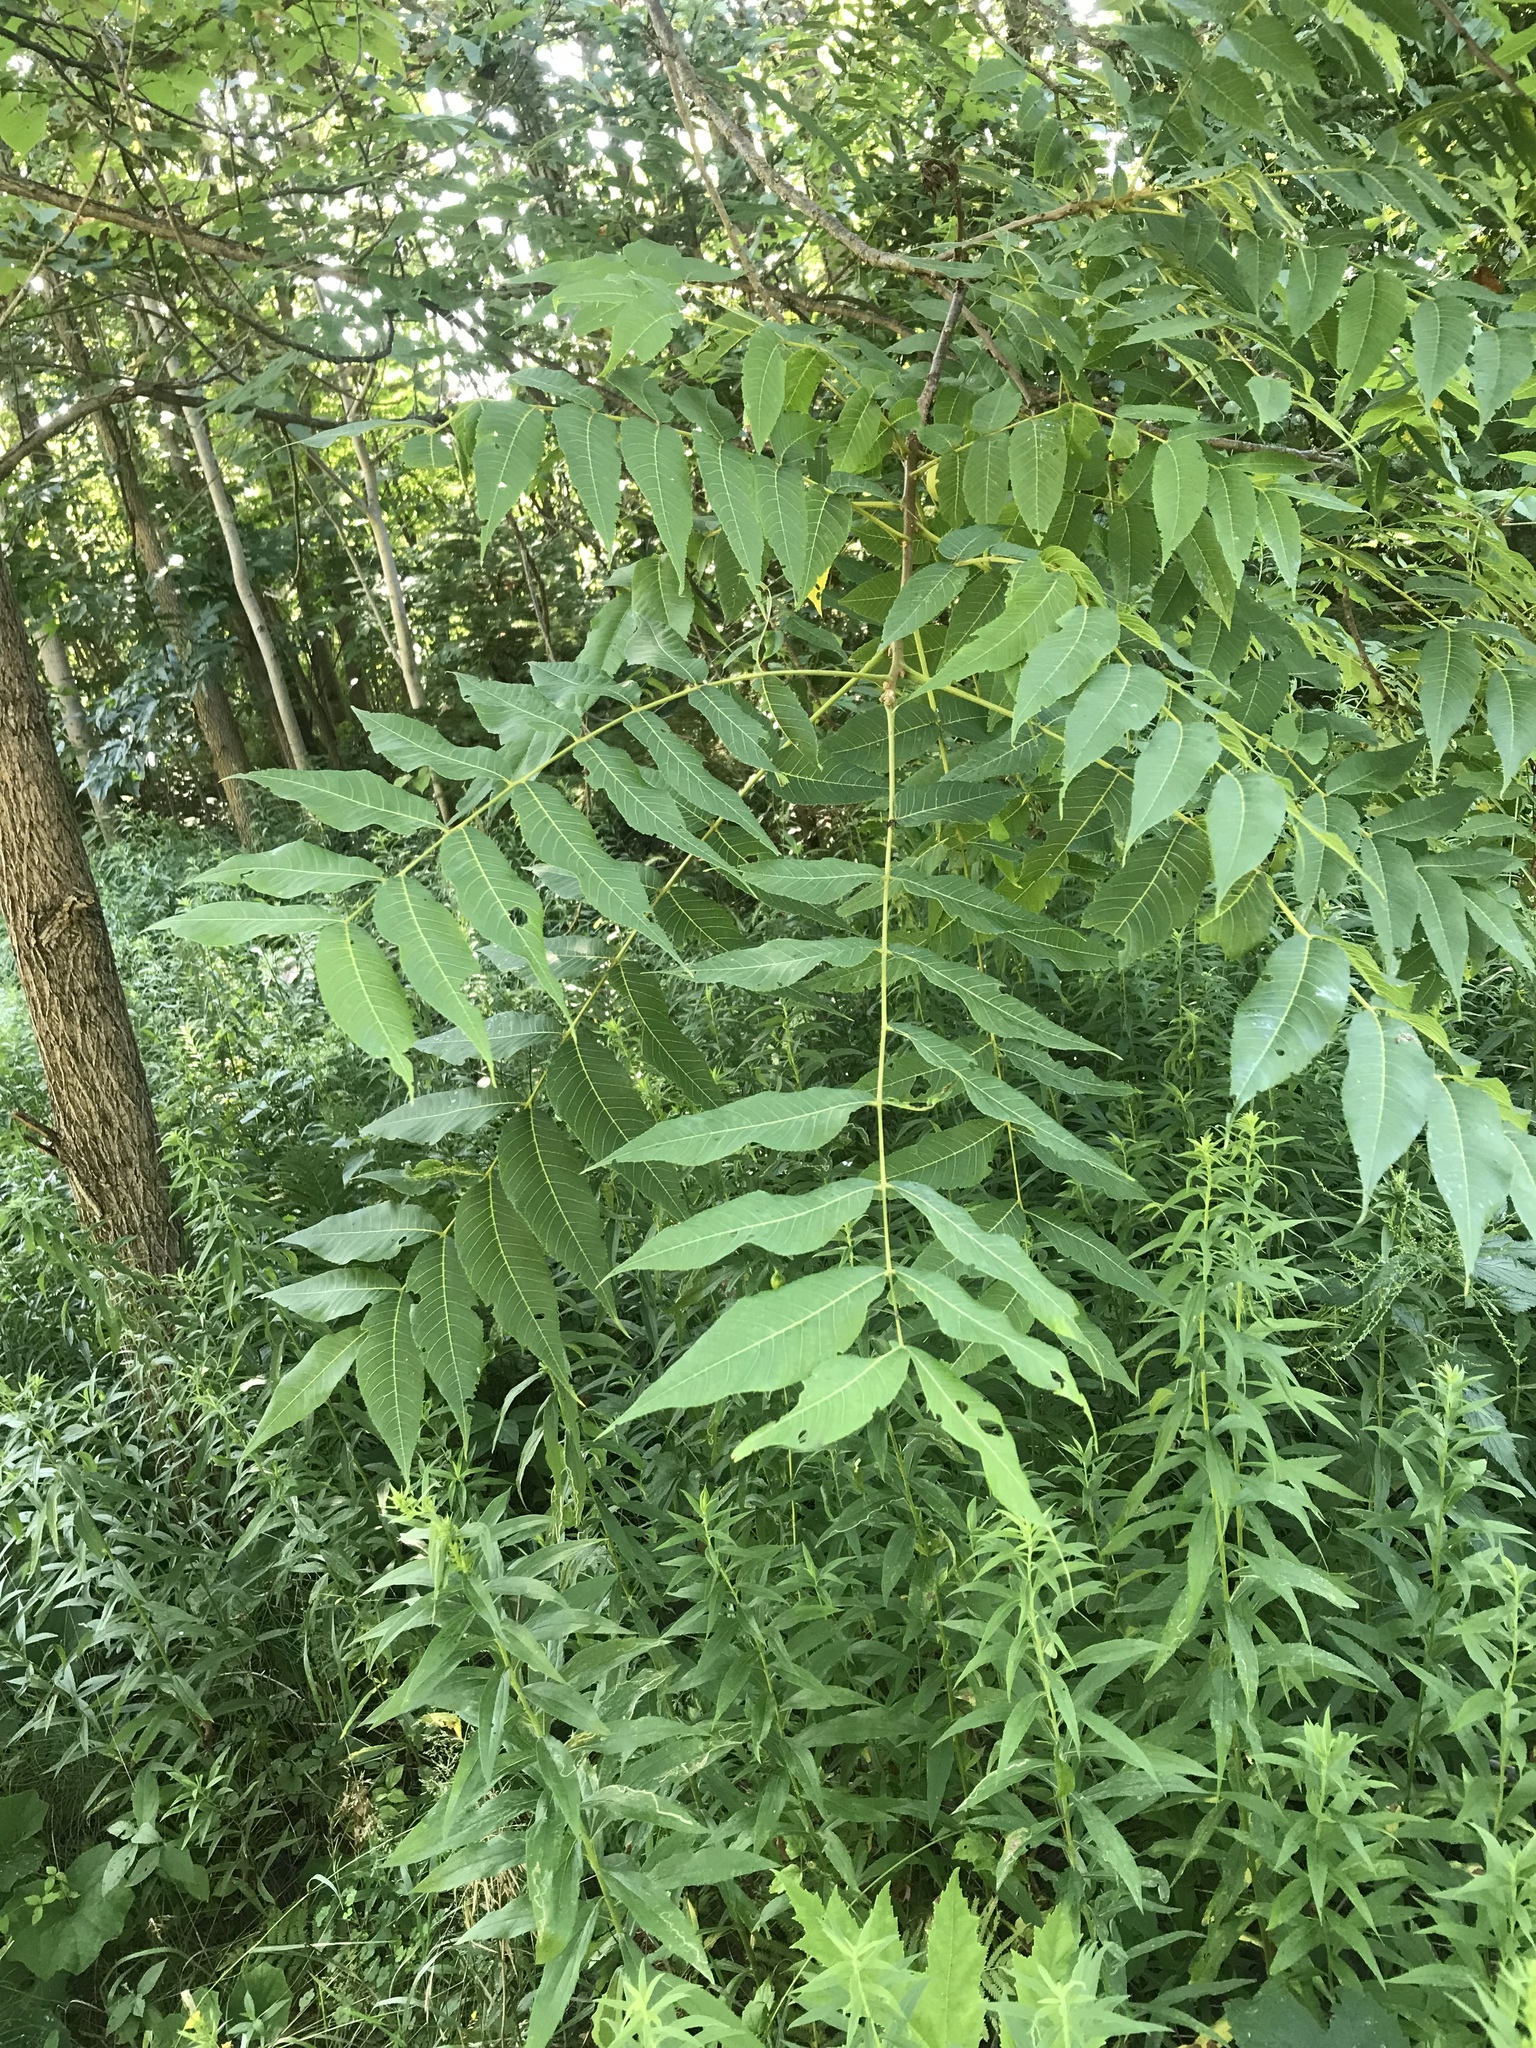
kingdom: Plantae
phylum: Tracheophyta
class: Magnoliopsida
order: Fagales
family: Juglandaceae
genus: Juglans
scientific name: Juglans nigra
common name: Black walnut
